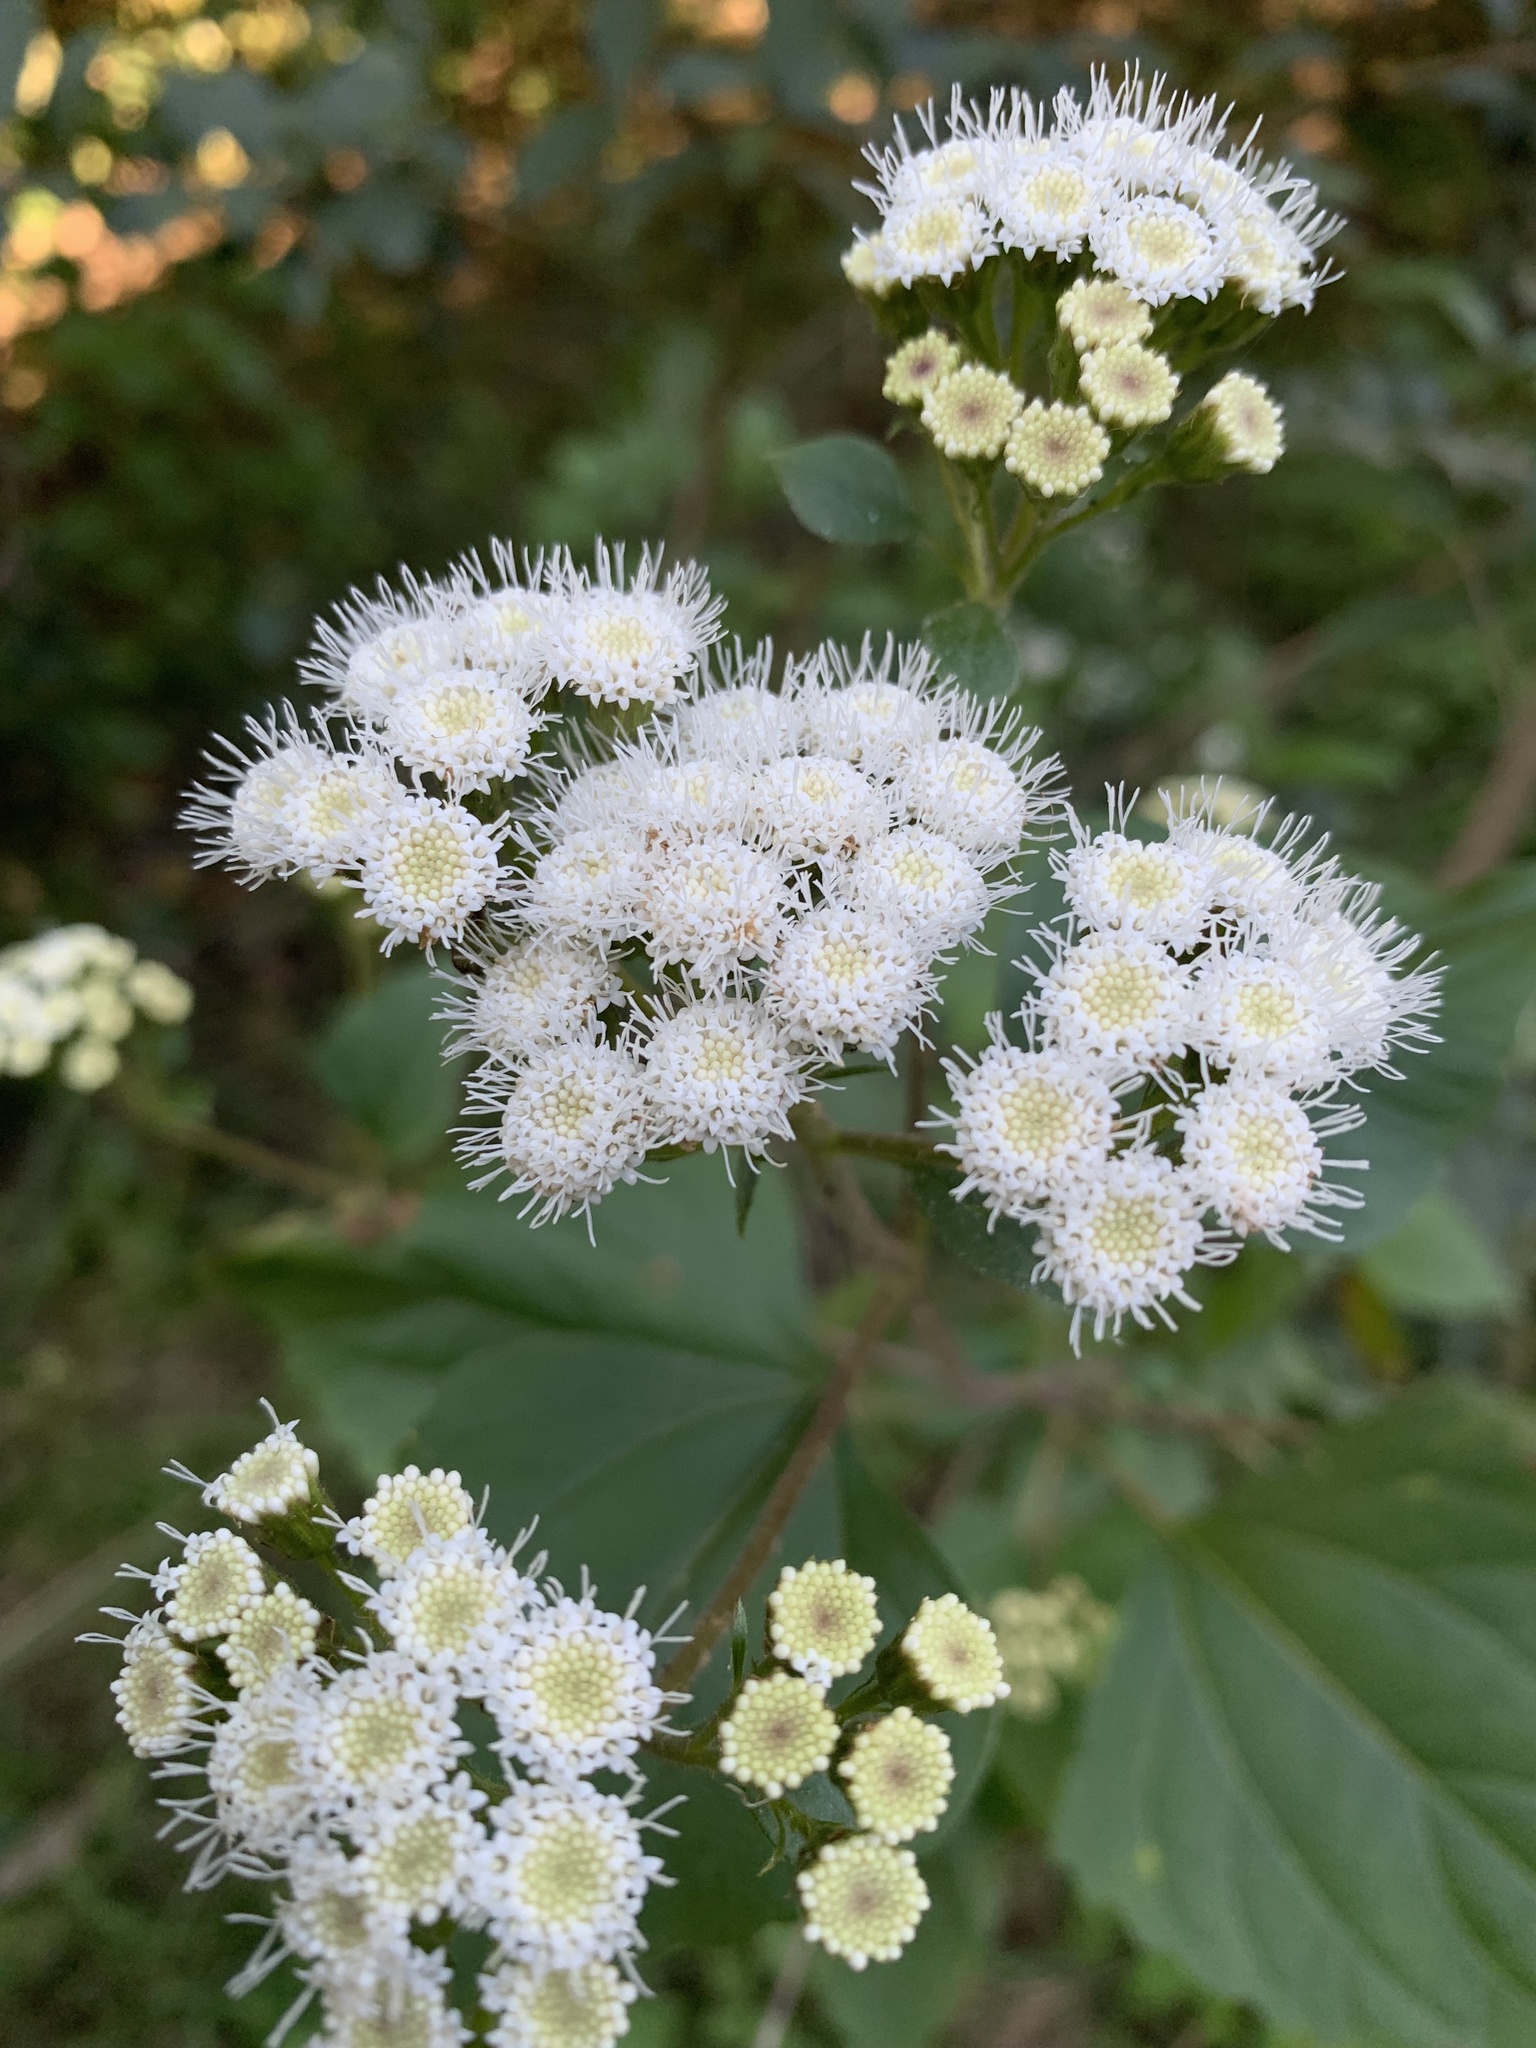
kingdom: Plantae
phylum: Tracheophyta
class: Magnoliopsida
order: Asterales
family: Asteraceae
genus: Ageratina
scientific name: Ageratina adenophora
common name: Sticky snakeroot
